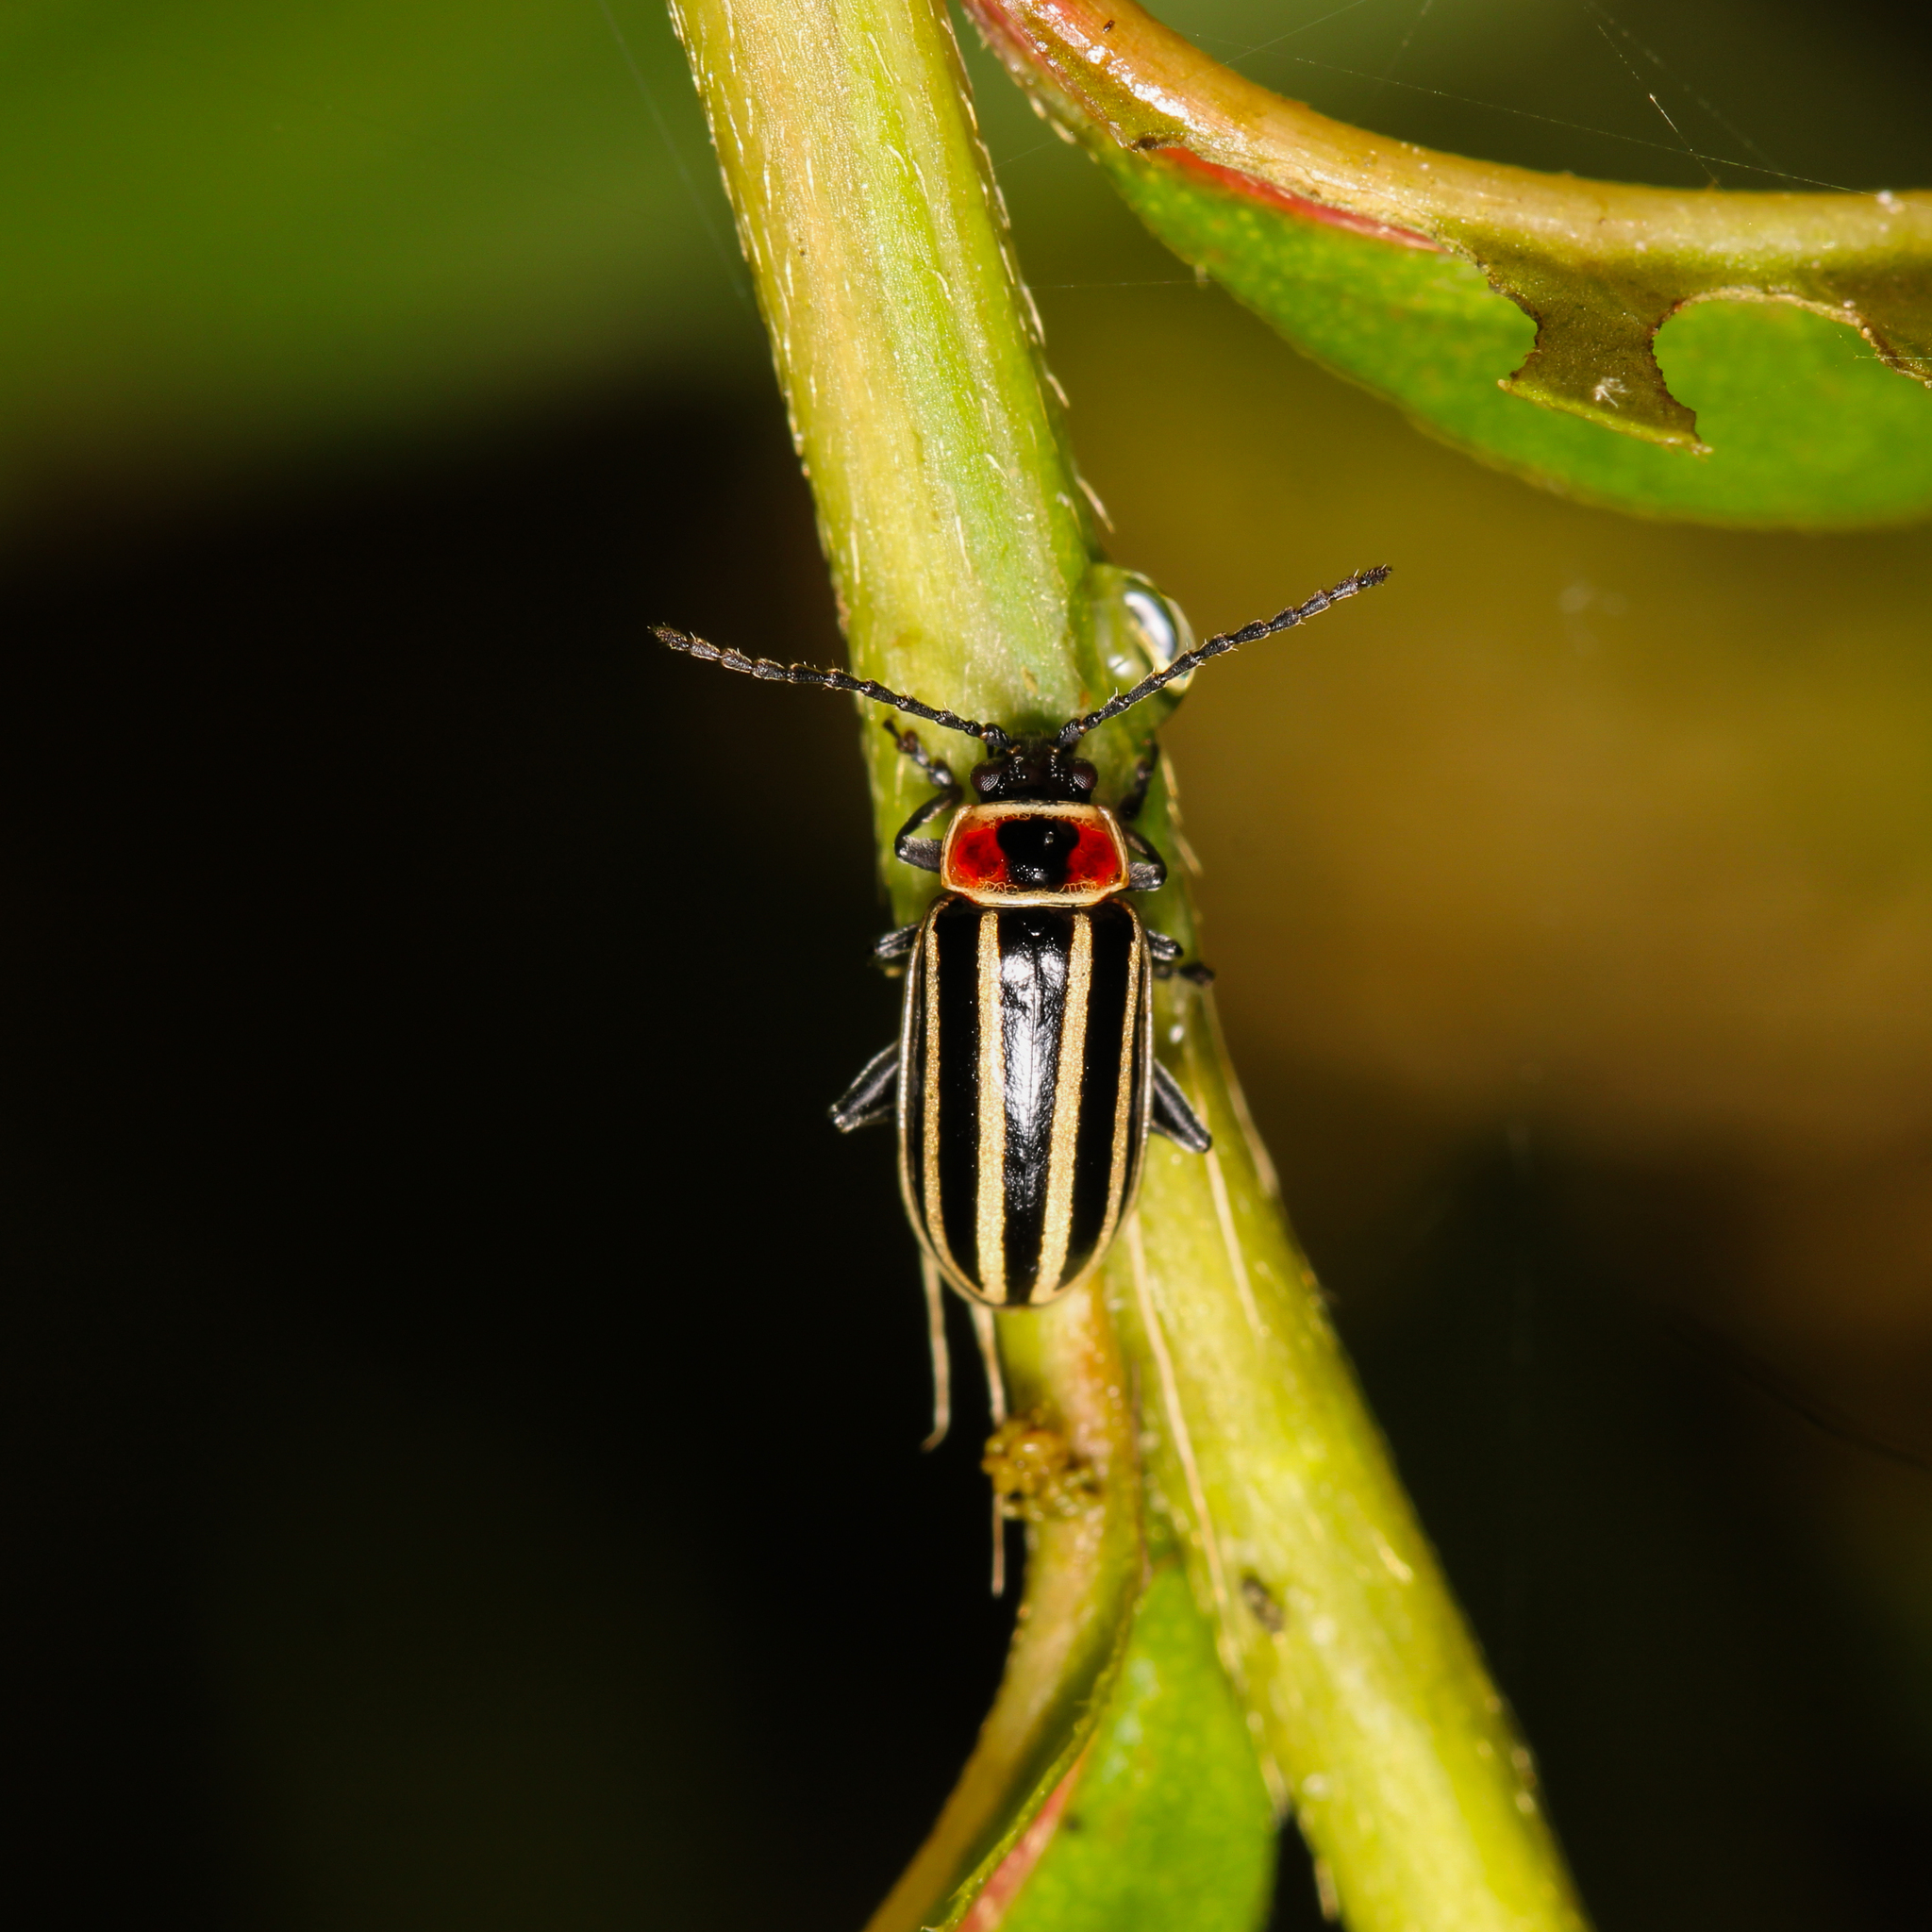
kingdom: Animalia
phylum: Arthropoda
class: Insecta
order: Coleoptera
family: Chrysomelidae
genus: Disonycha
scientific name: Disonycha pensylvanica
